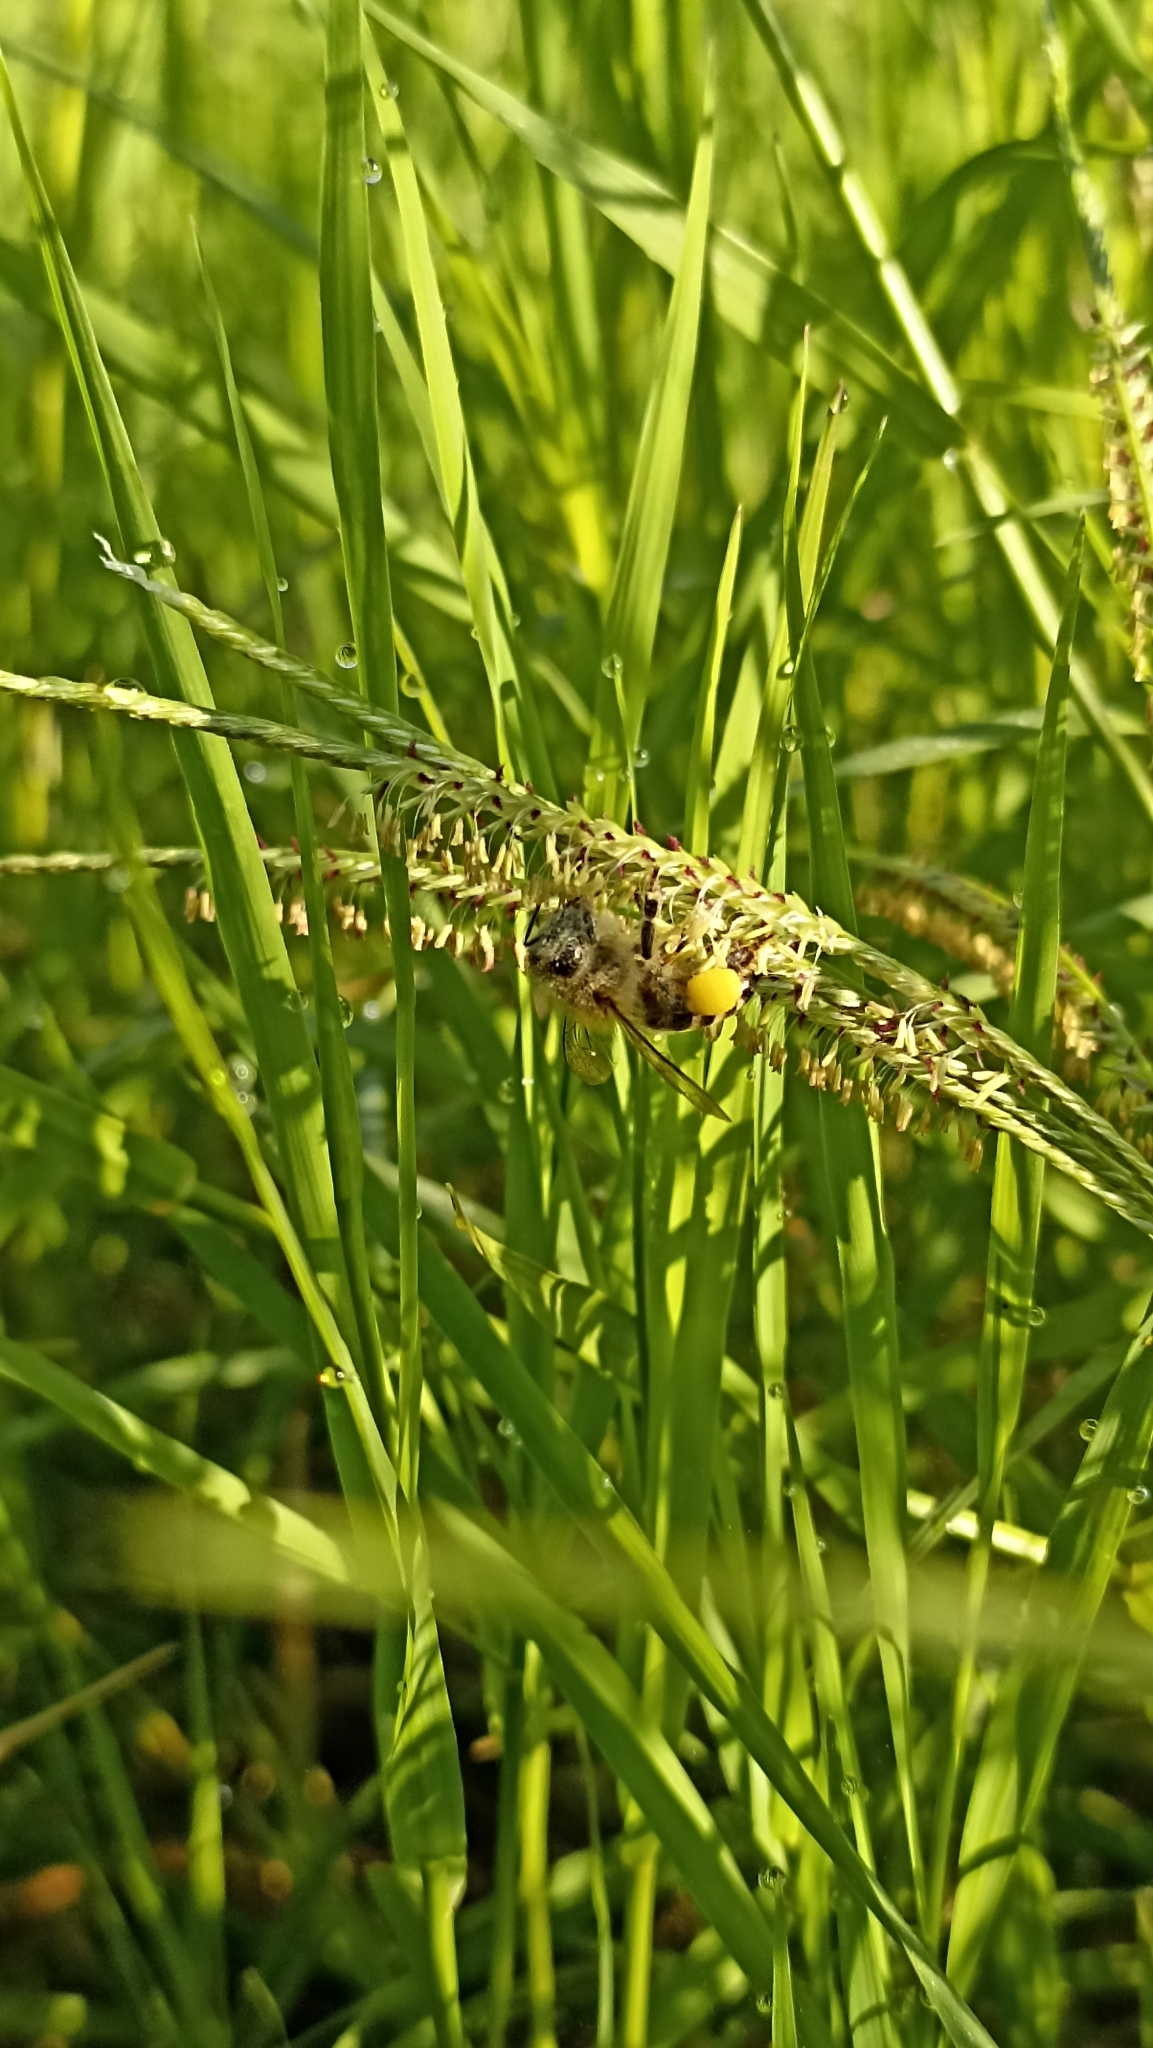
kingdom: Animalia
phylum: Arthropoda
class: Insecta
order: Hymenoptera
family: Apidae
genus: Apis
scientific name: Apis mellifera
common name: Honey bee
